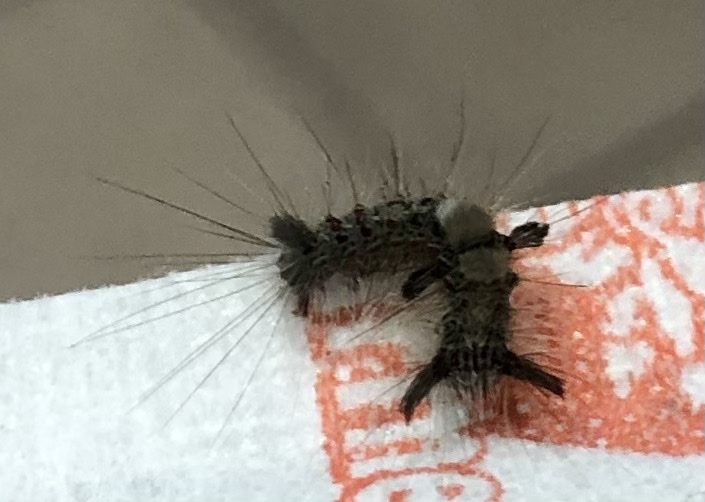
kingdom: Animalia
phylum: Arthropoda
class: Insecta
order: Lepidoptera
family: Erebidae
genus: Olene
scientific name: Olene mendosa
